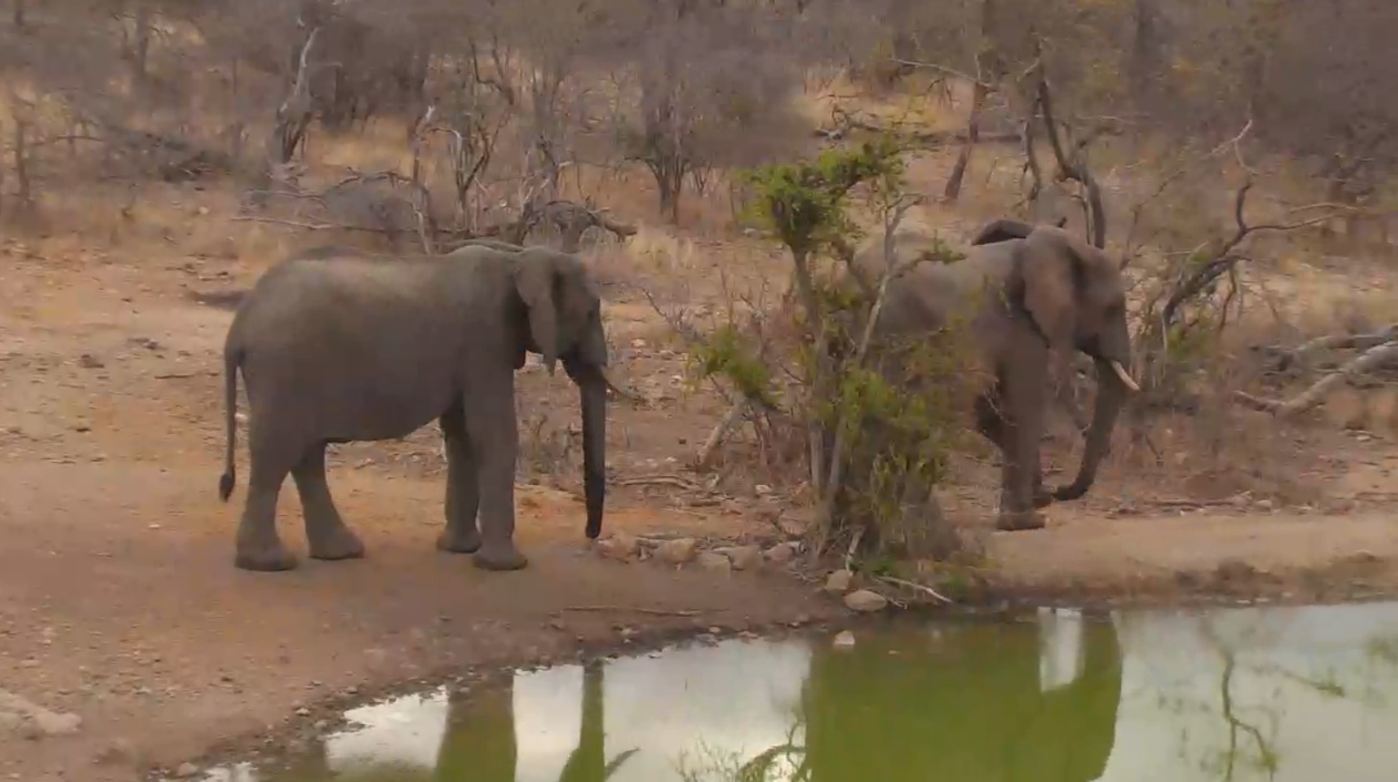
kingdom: Animalia
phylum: Chordata
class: Mammalia
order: Proboscidea
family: Elephantidae
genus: Loxodonta
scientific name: Loxodonta africana
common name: African elephant
